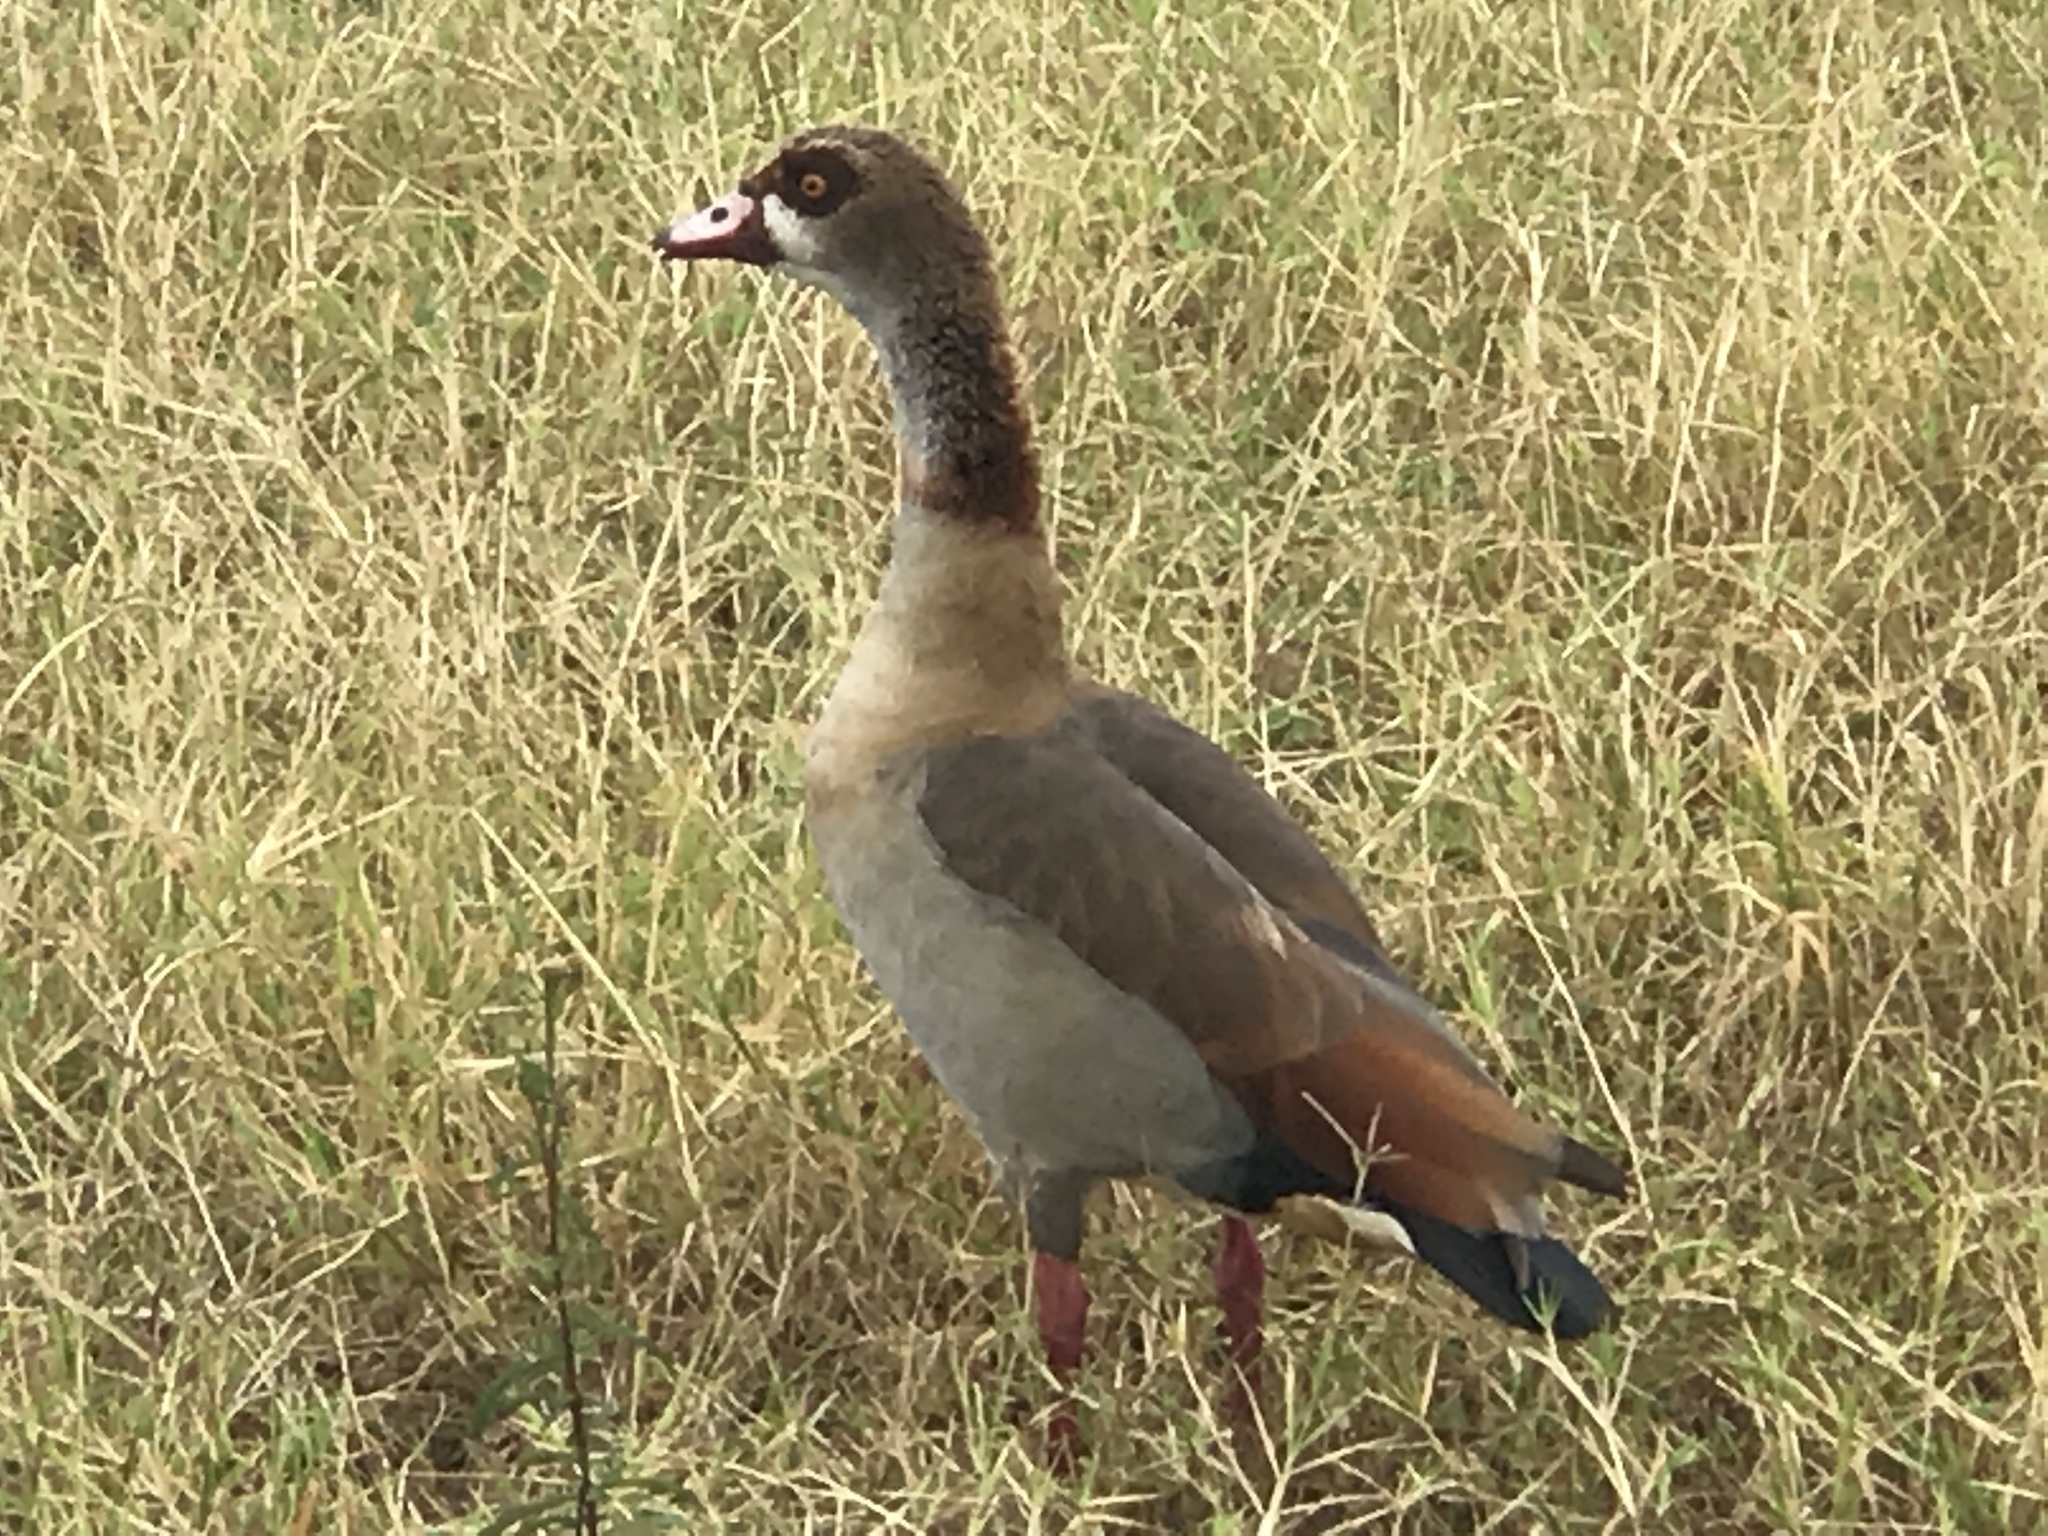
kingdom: Animalia
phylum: Chordata
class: Aves
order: Anseriformes
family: Anatidae
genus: Alopochen
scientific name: Alopochen aegyptiaca
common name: Egyptian goose
